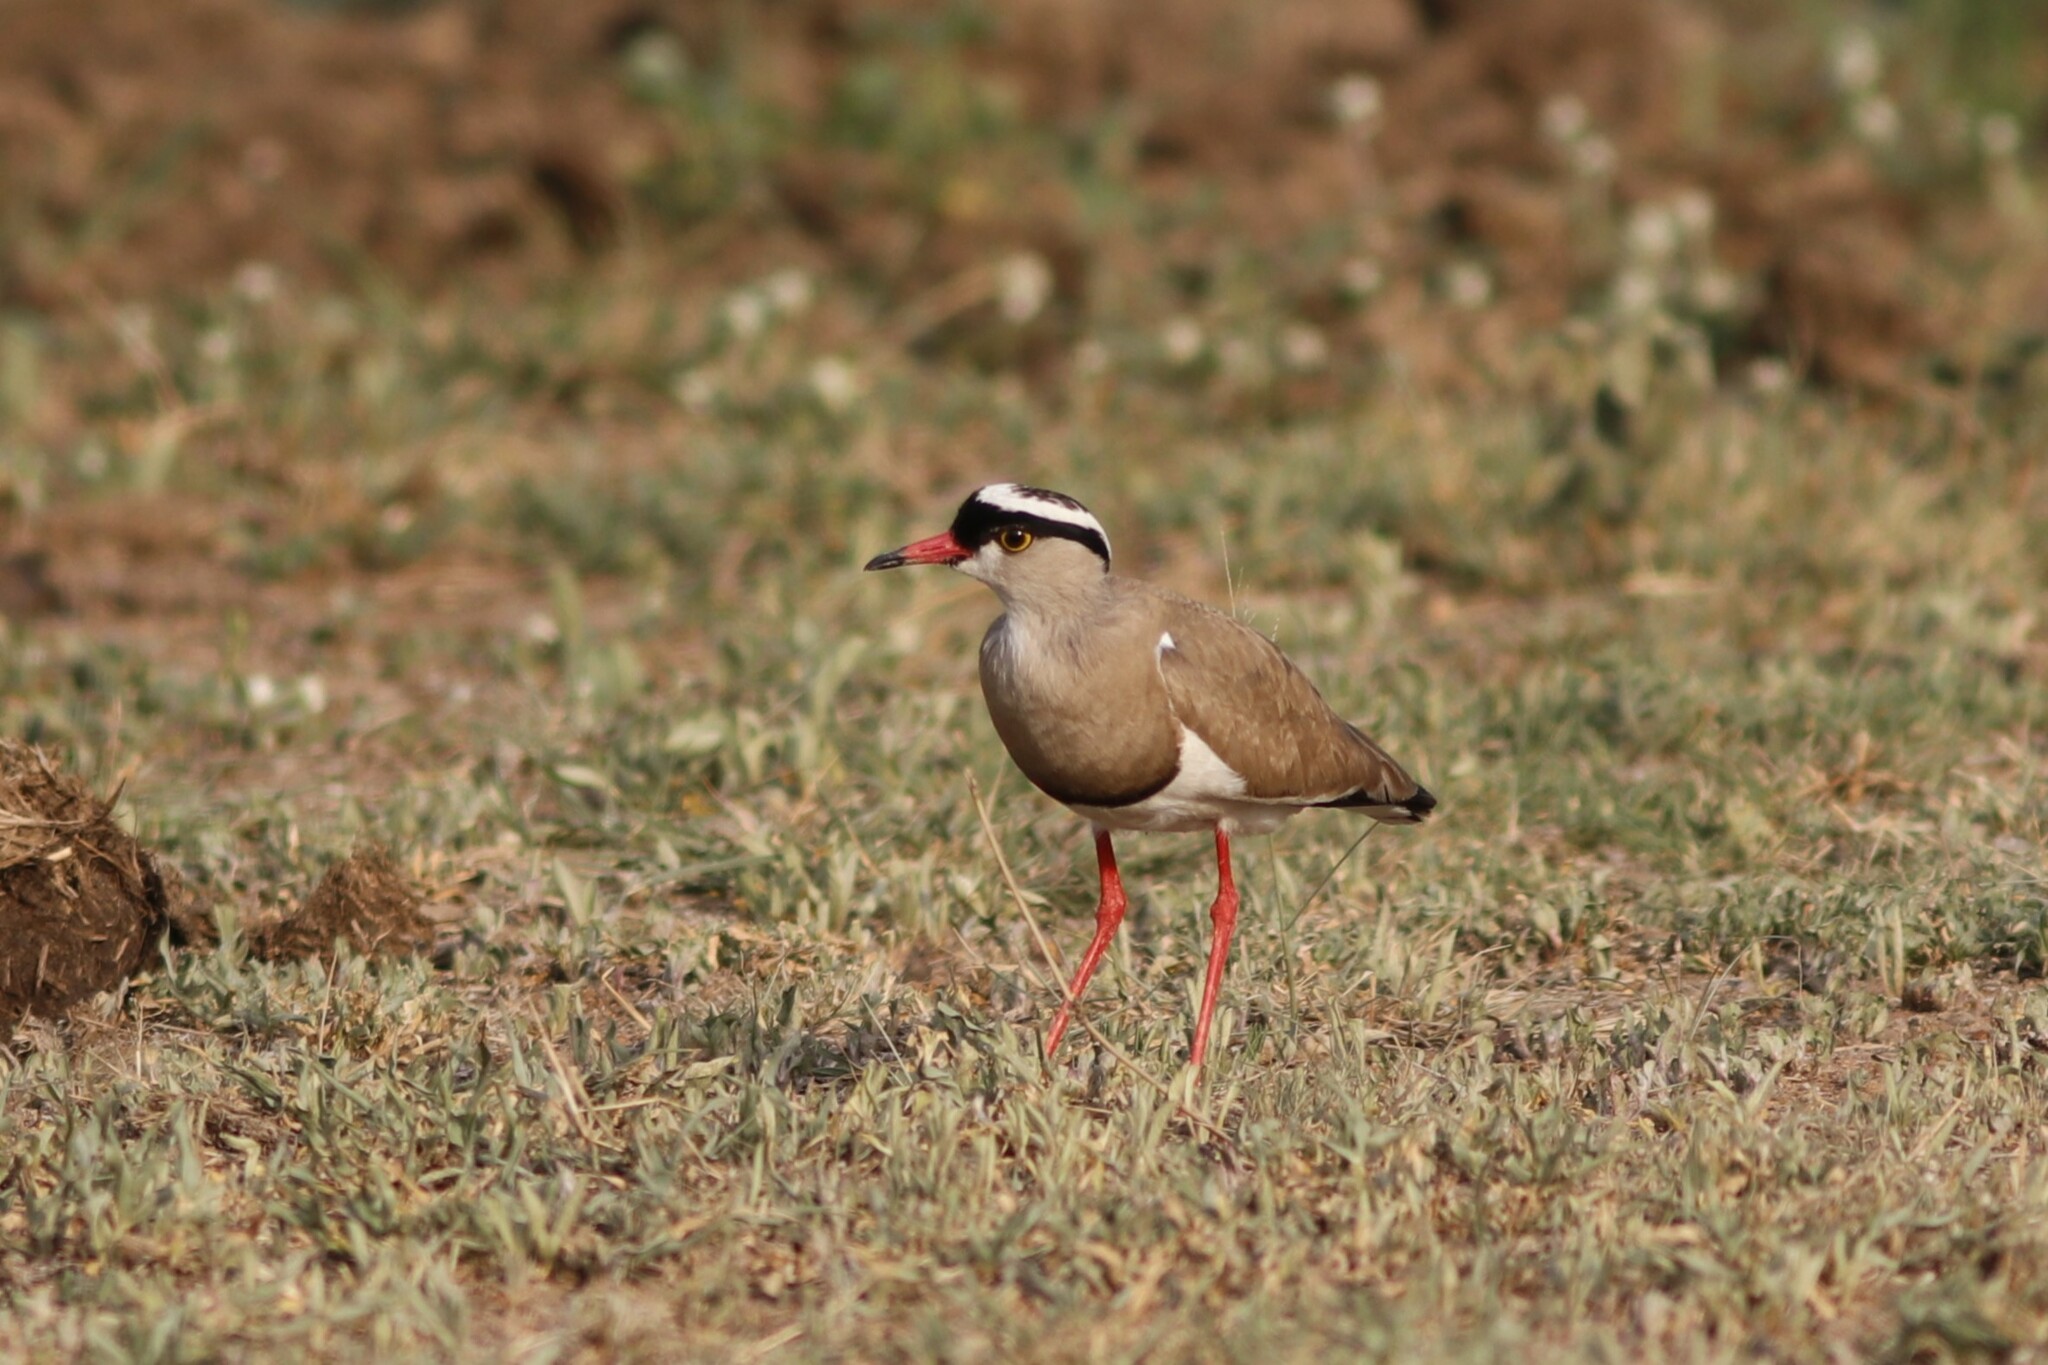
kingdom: Animalia
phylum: Chordata
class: Aves
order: Charadriiformes
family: Charadriidae
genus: Vanellus
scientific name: Vanellus coronatus
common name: Crowned lapwing
